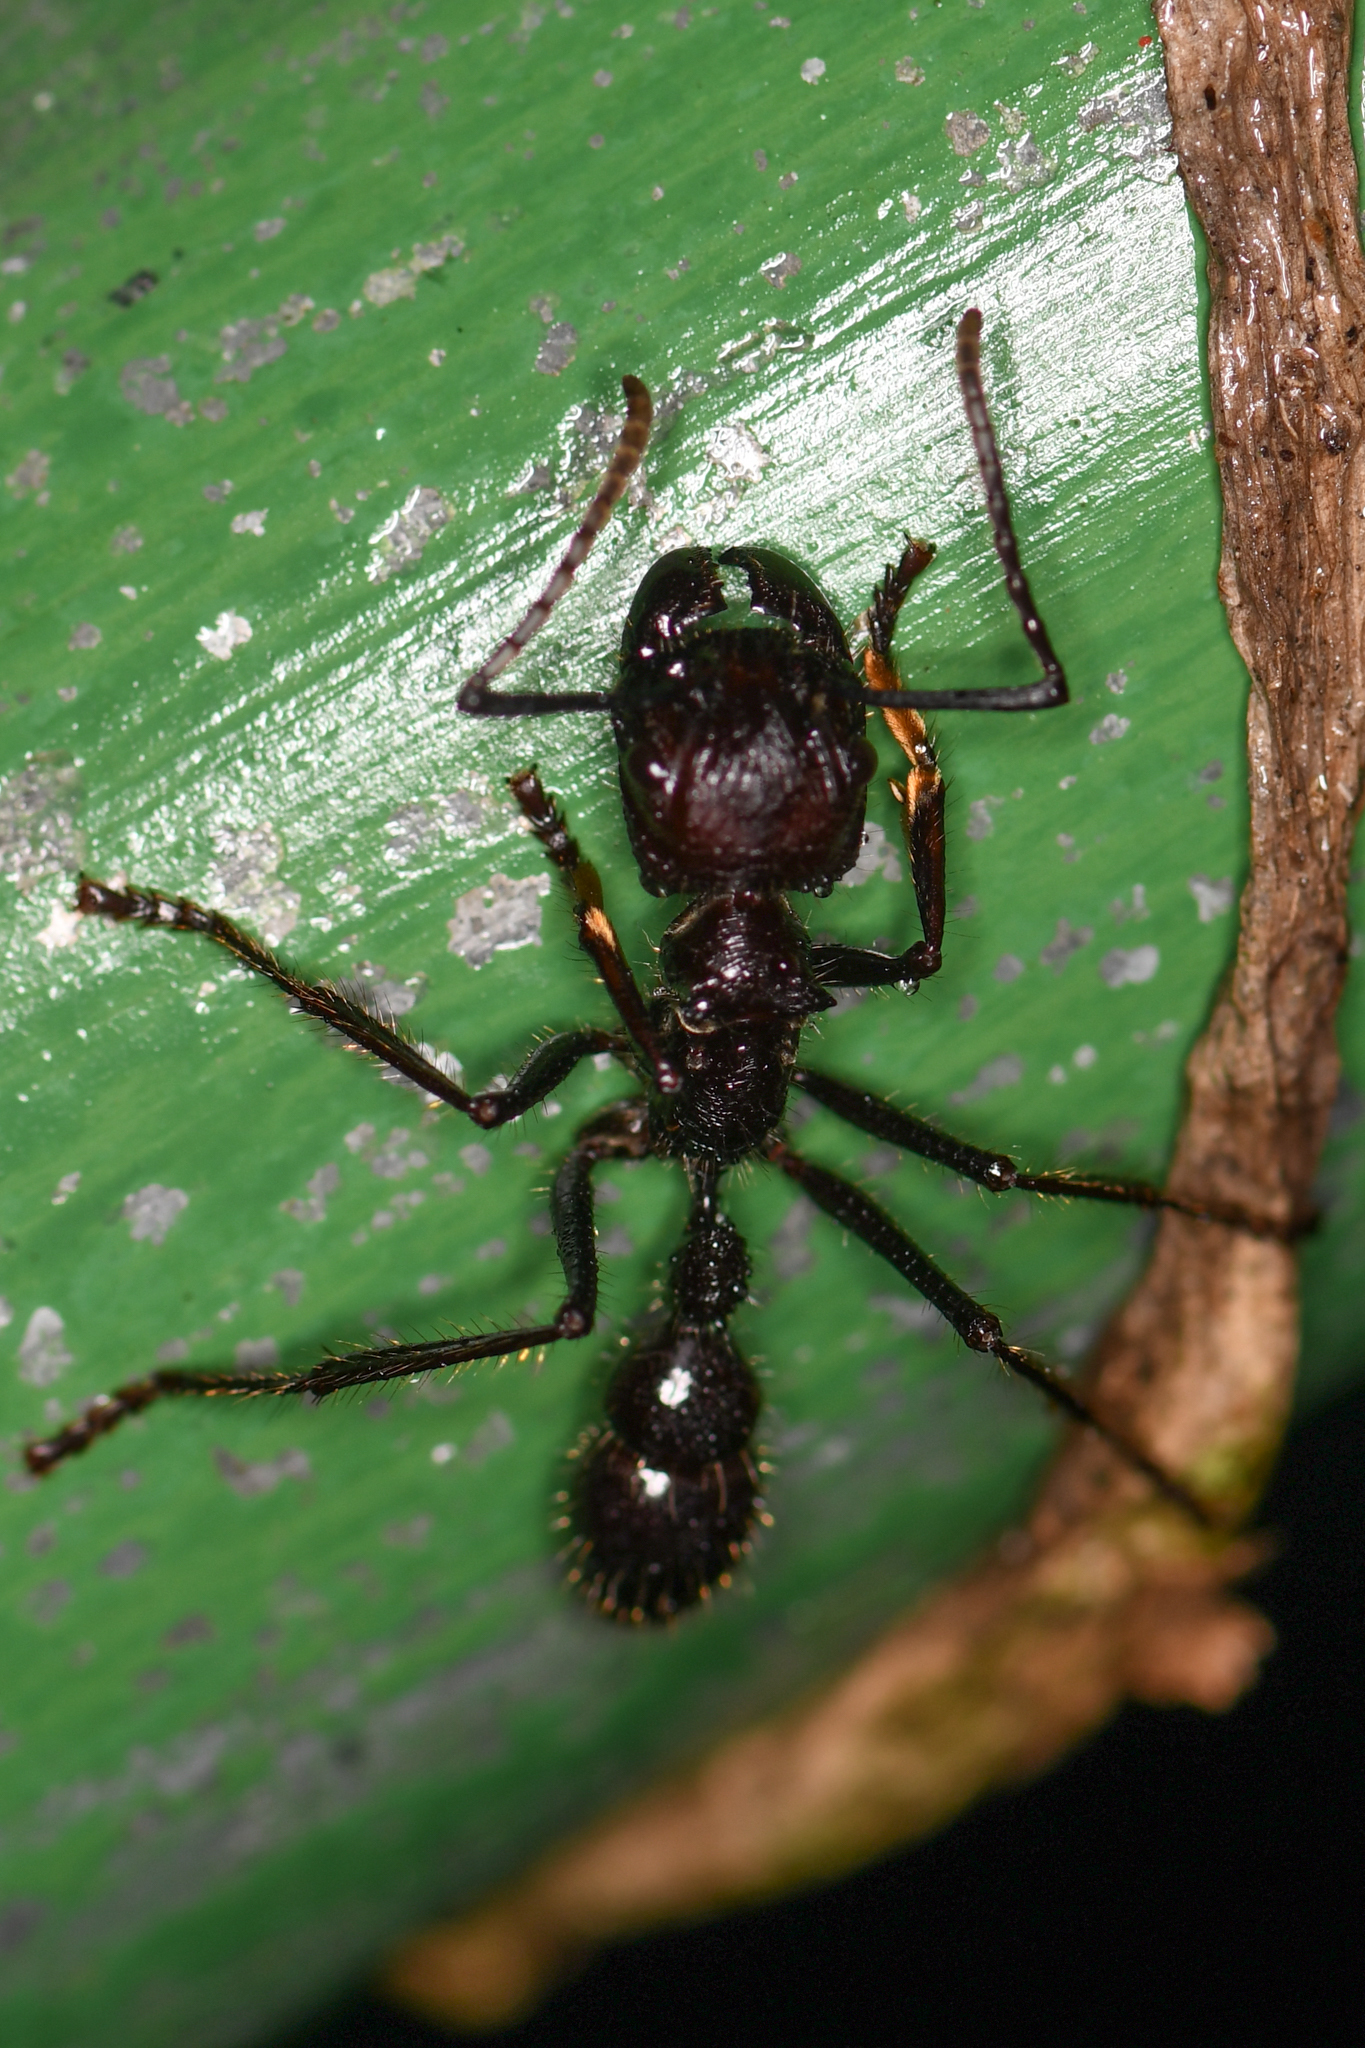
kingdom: Animalia
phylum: Arthropoda
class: Insecta
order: Hymenoptera
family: Formicidae
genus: Paraponera
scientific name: Paraponera clavata
